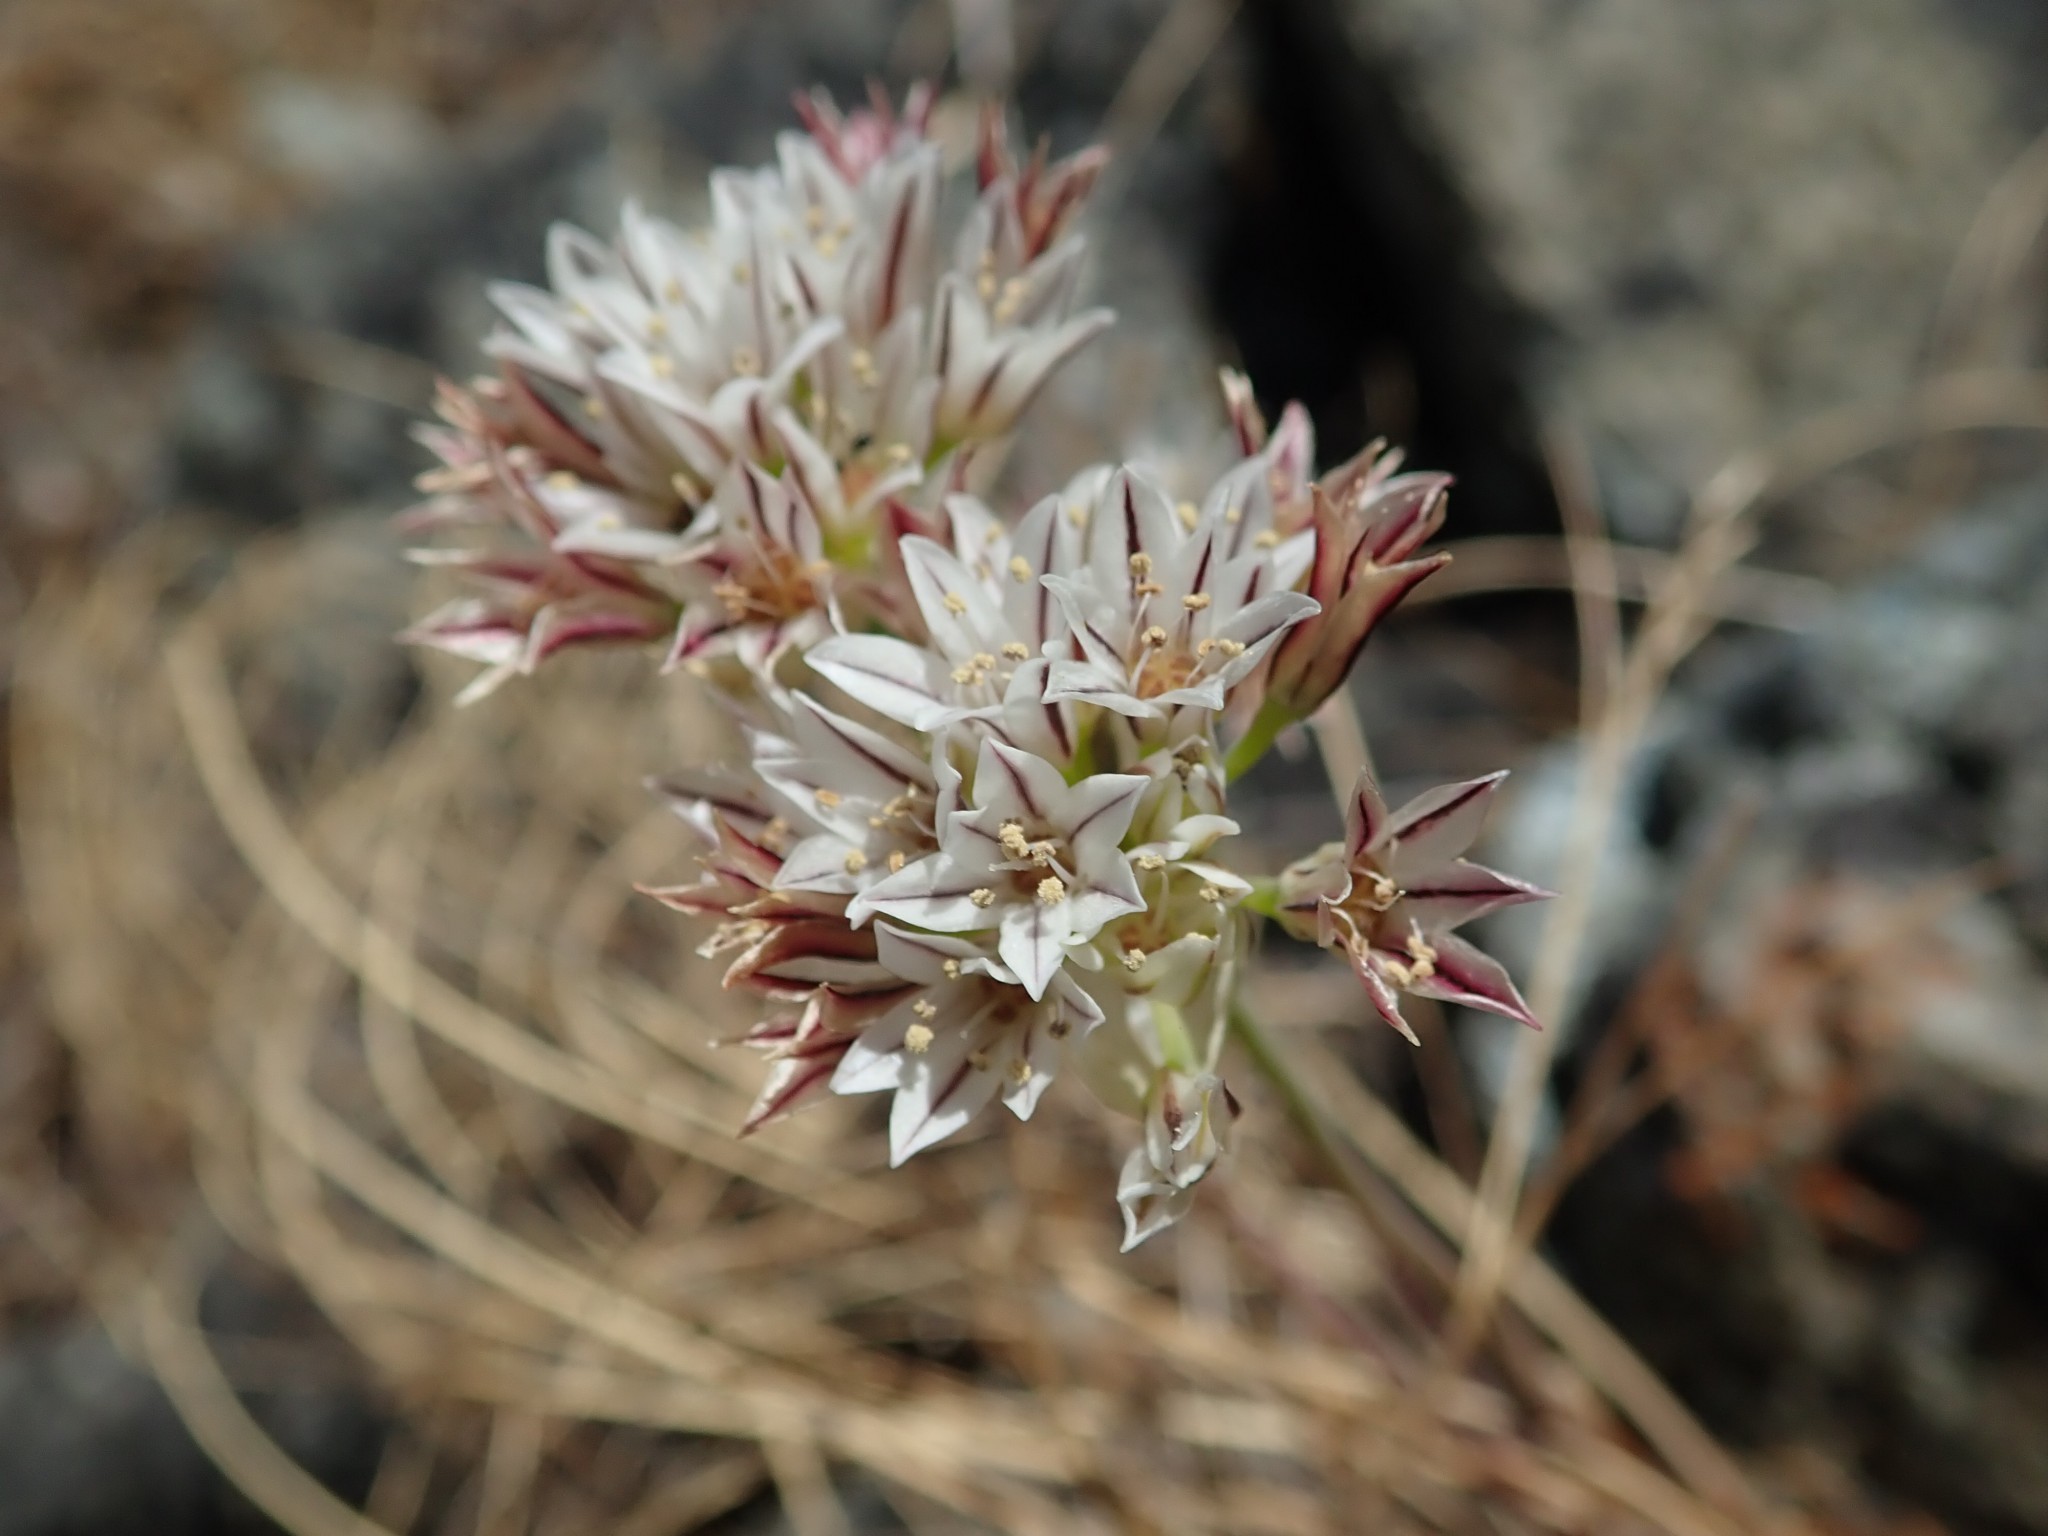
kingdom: Plantae
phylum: Tracheophyta
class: Liliopsida
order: Asparagales
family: Amaryllidaceae
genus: Allium
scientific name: Allium lacunosum
